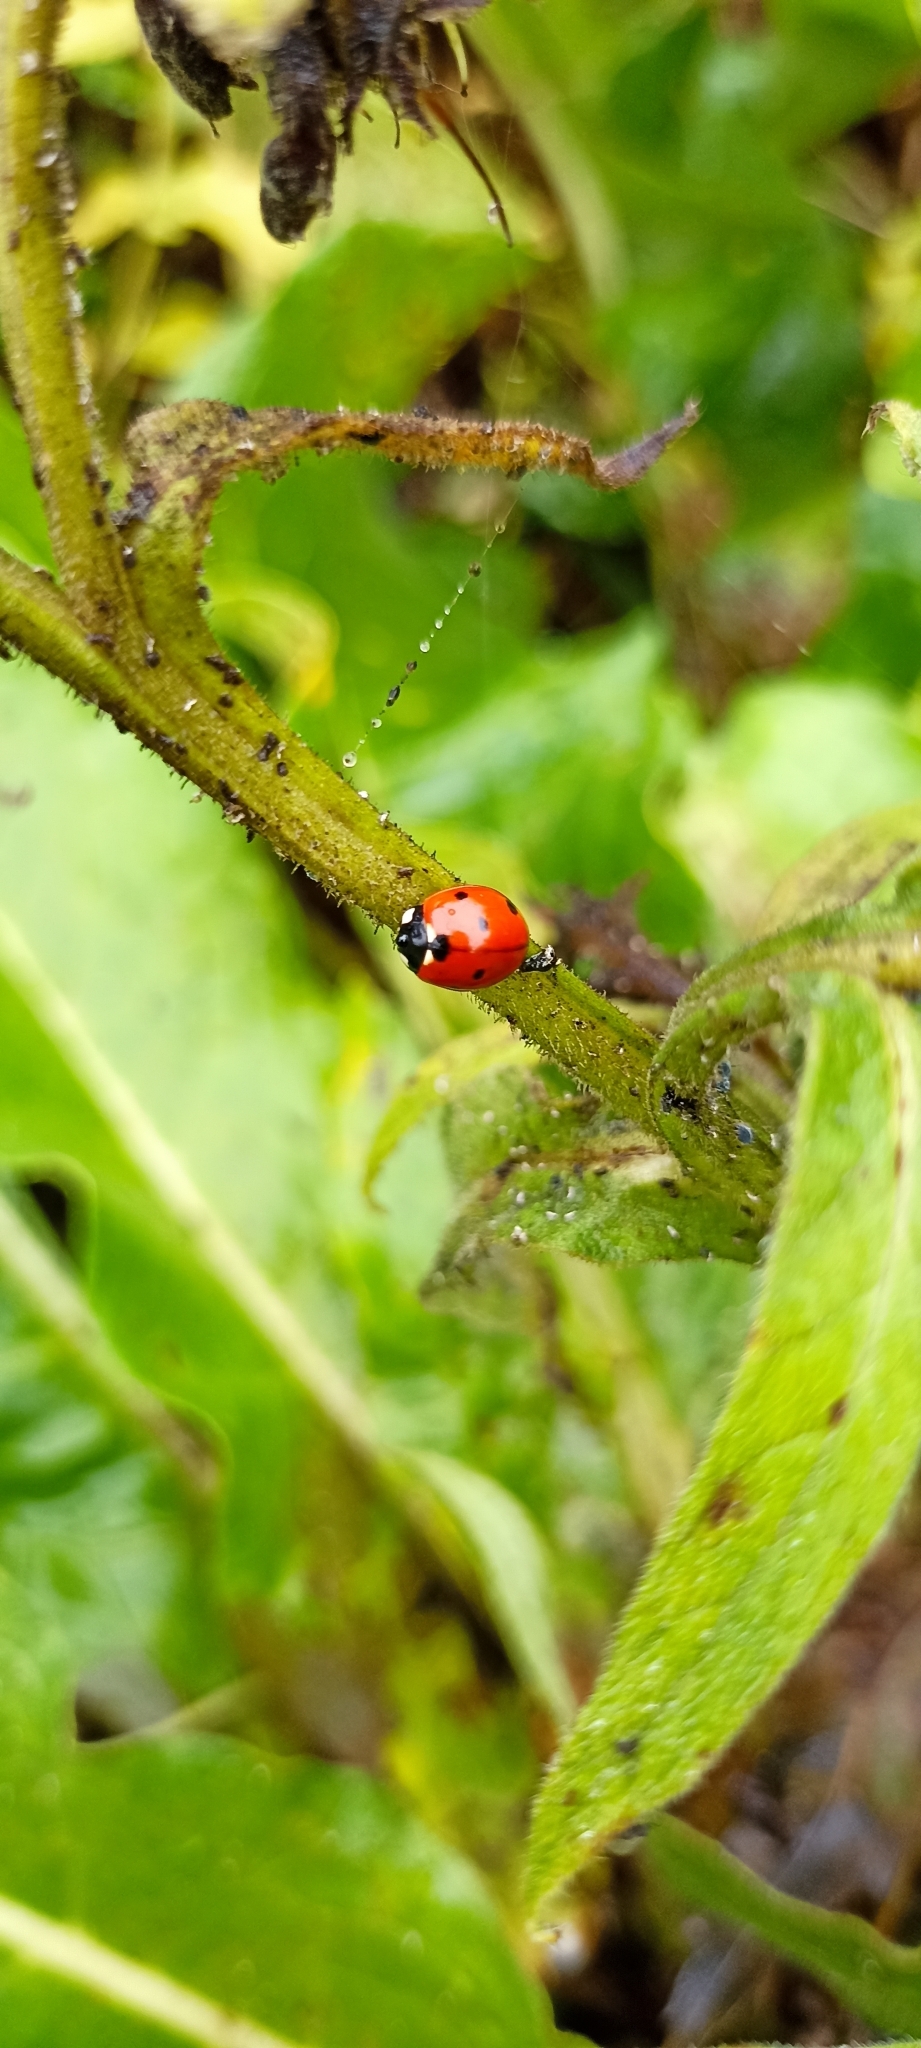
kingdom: Animalia
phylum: Arthropoda
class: Insecta
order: Coleoptera
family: Coccinellidae
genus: Coccinella
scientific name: Coccinella septempunctata
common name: Sevenspotted lady beetle
